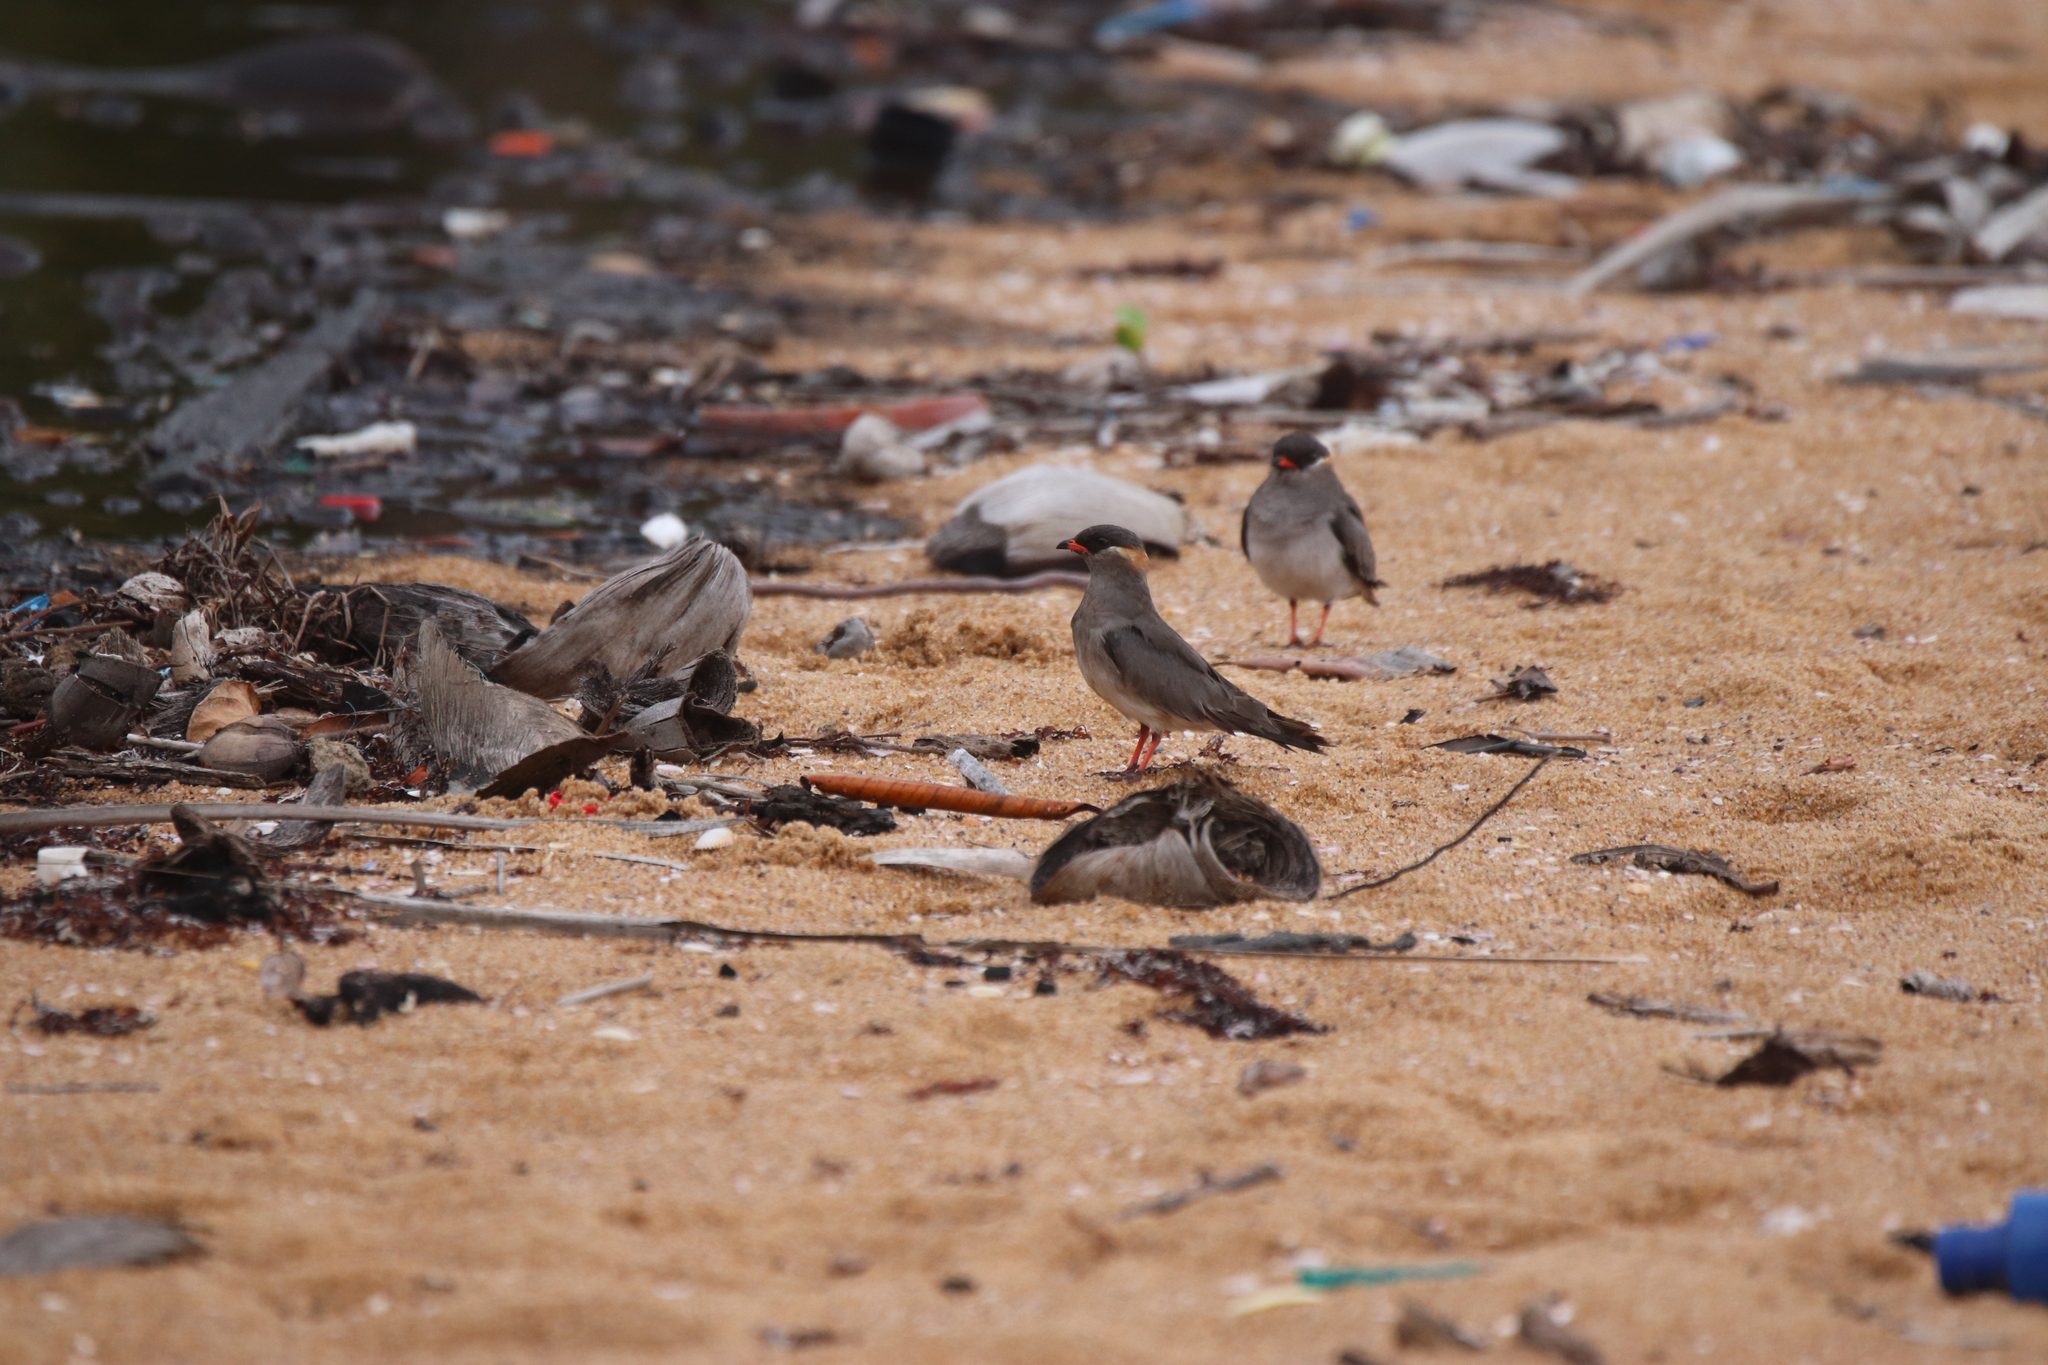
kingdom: Animalia
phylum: Chordata
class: Aves
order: Charadriiformes
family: Glareolidae
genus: Glareola
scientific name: Glareola nuchalis
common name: Rock pratincole
